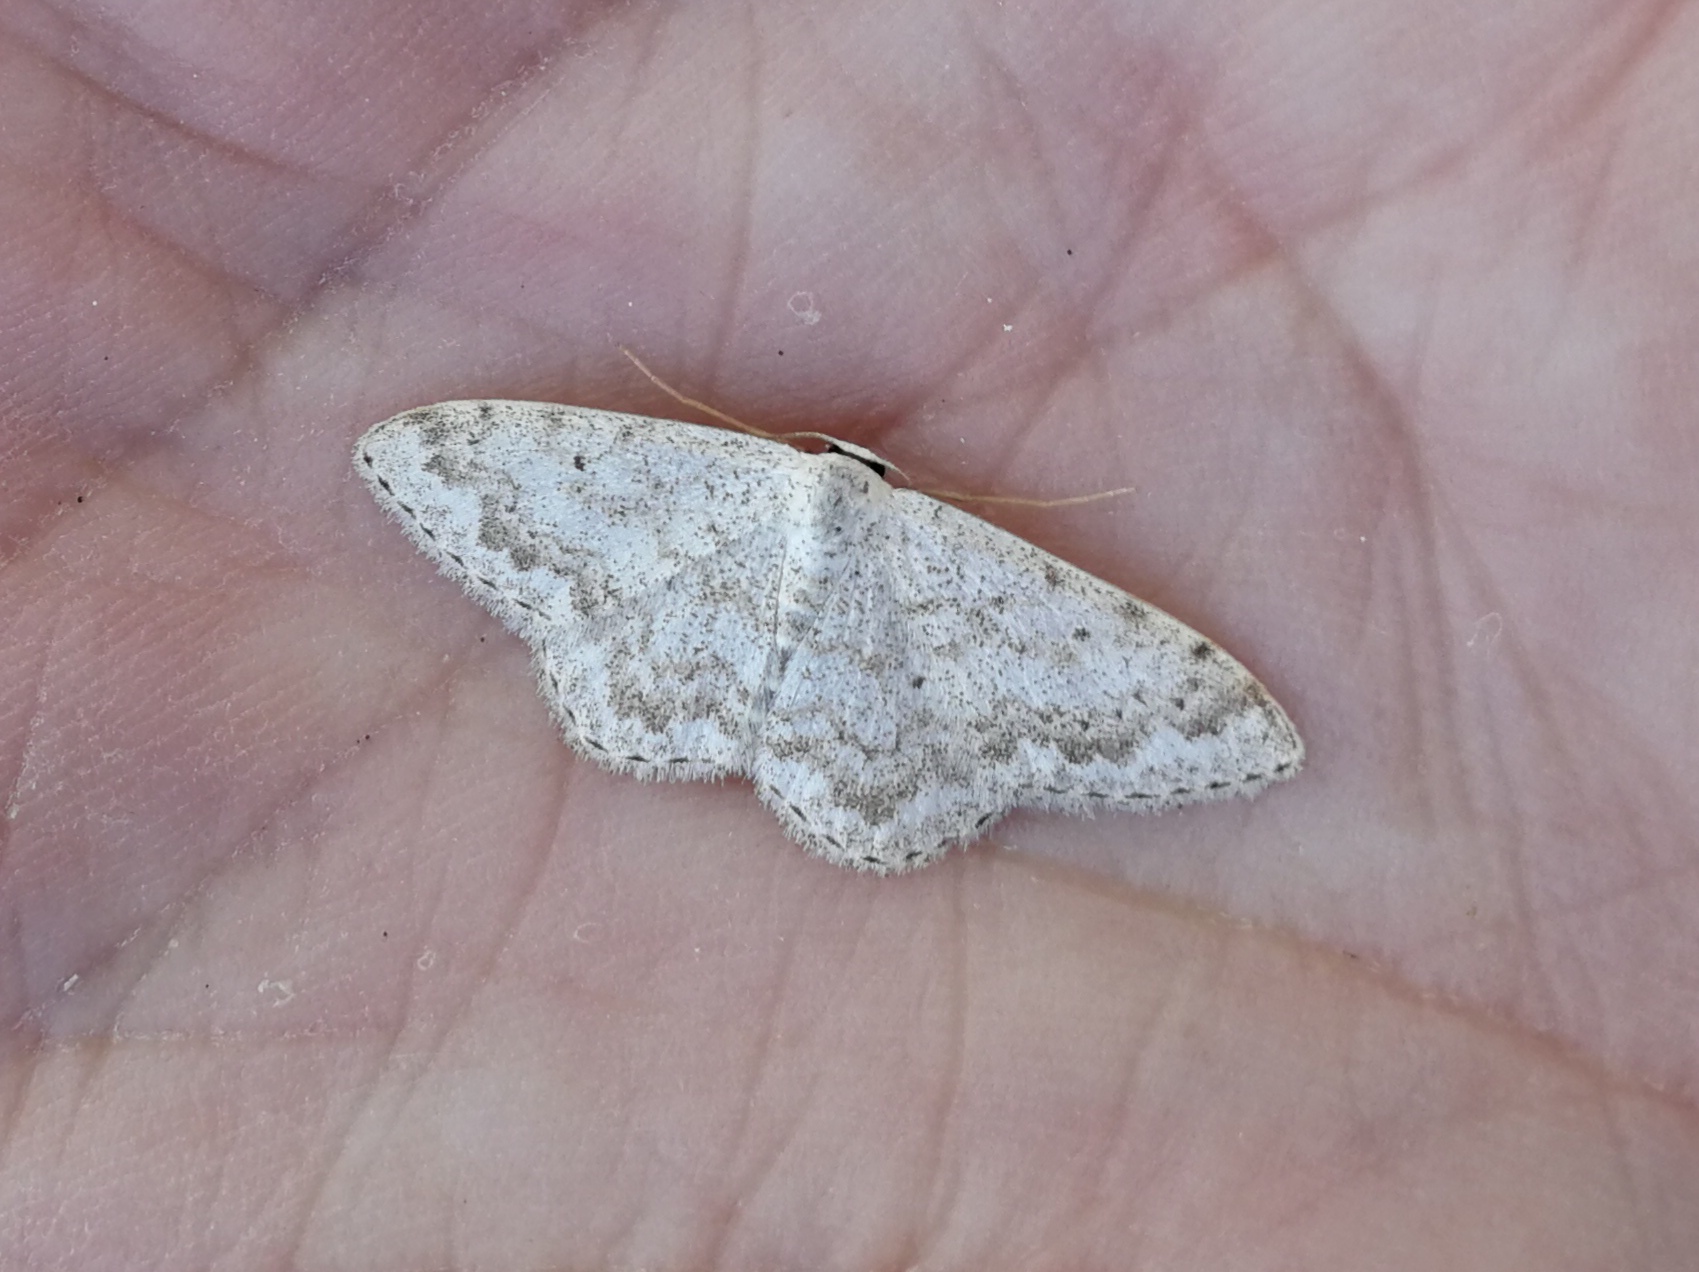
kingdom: Animalia
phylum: Arthropoda
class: Insecta
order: Lepidoptera
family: Geometridae
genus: Scopula
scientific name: Scopula marginepunctata
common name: Mullein wave
